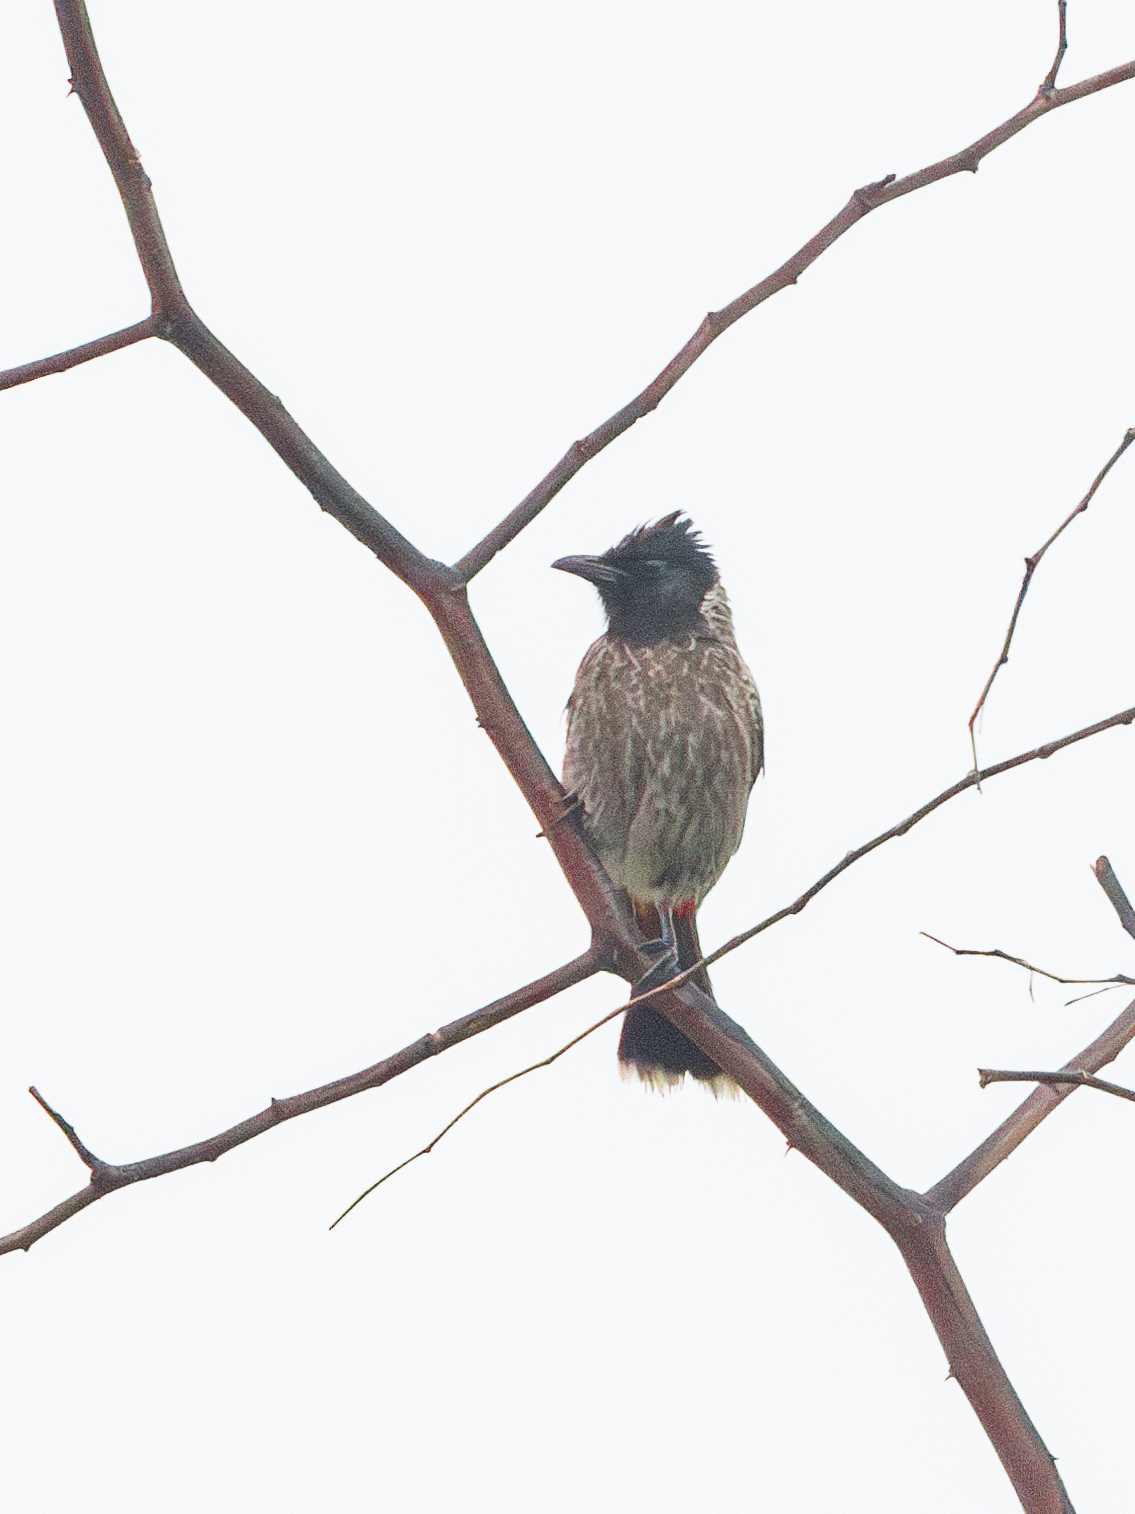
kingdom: Animalia
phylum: Chordata
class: Aves
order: Passeriformes
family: Pycnonotidae
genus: Pycnonotus
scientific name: Pycnonotus cafer
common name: Red-vented bulbul
